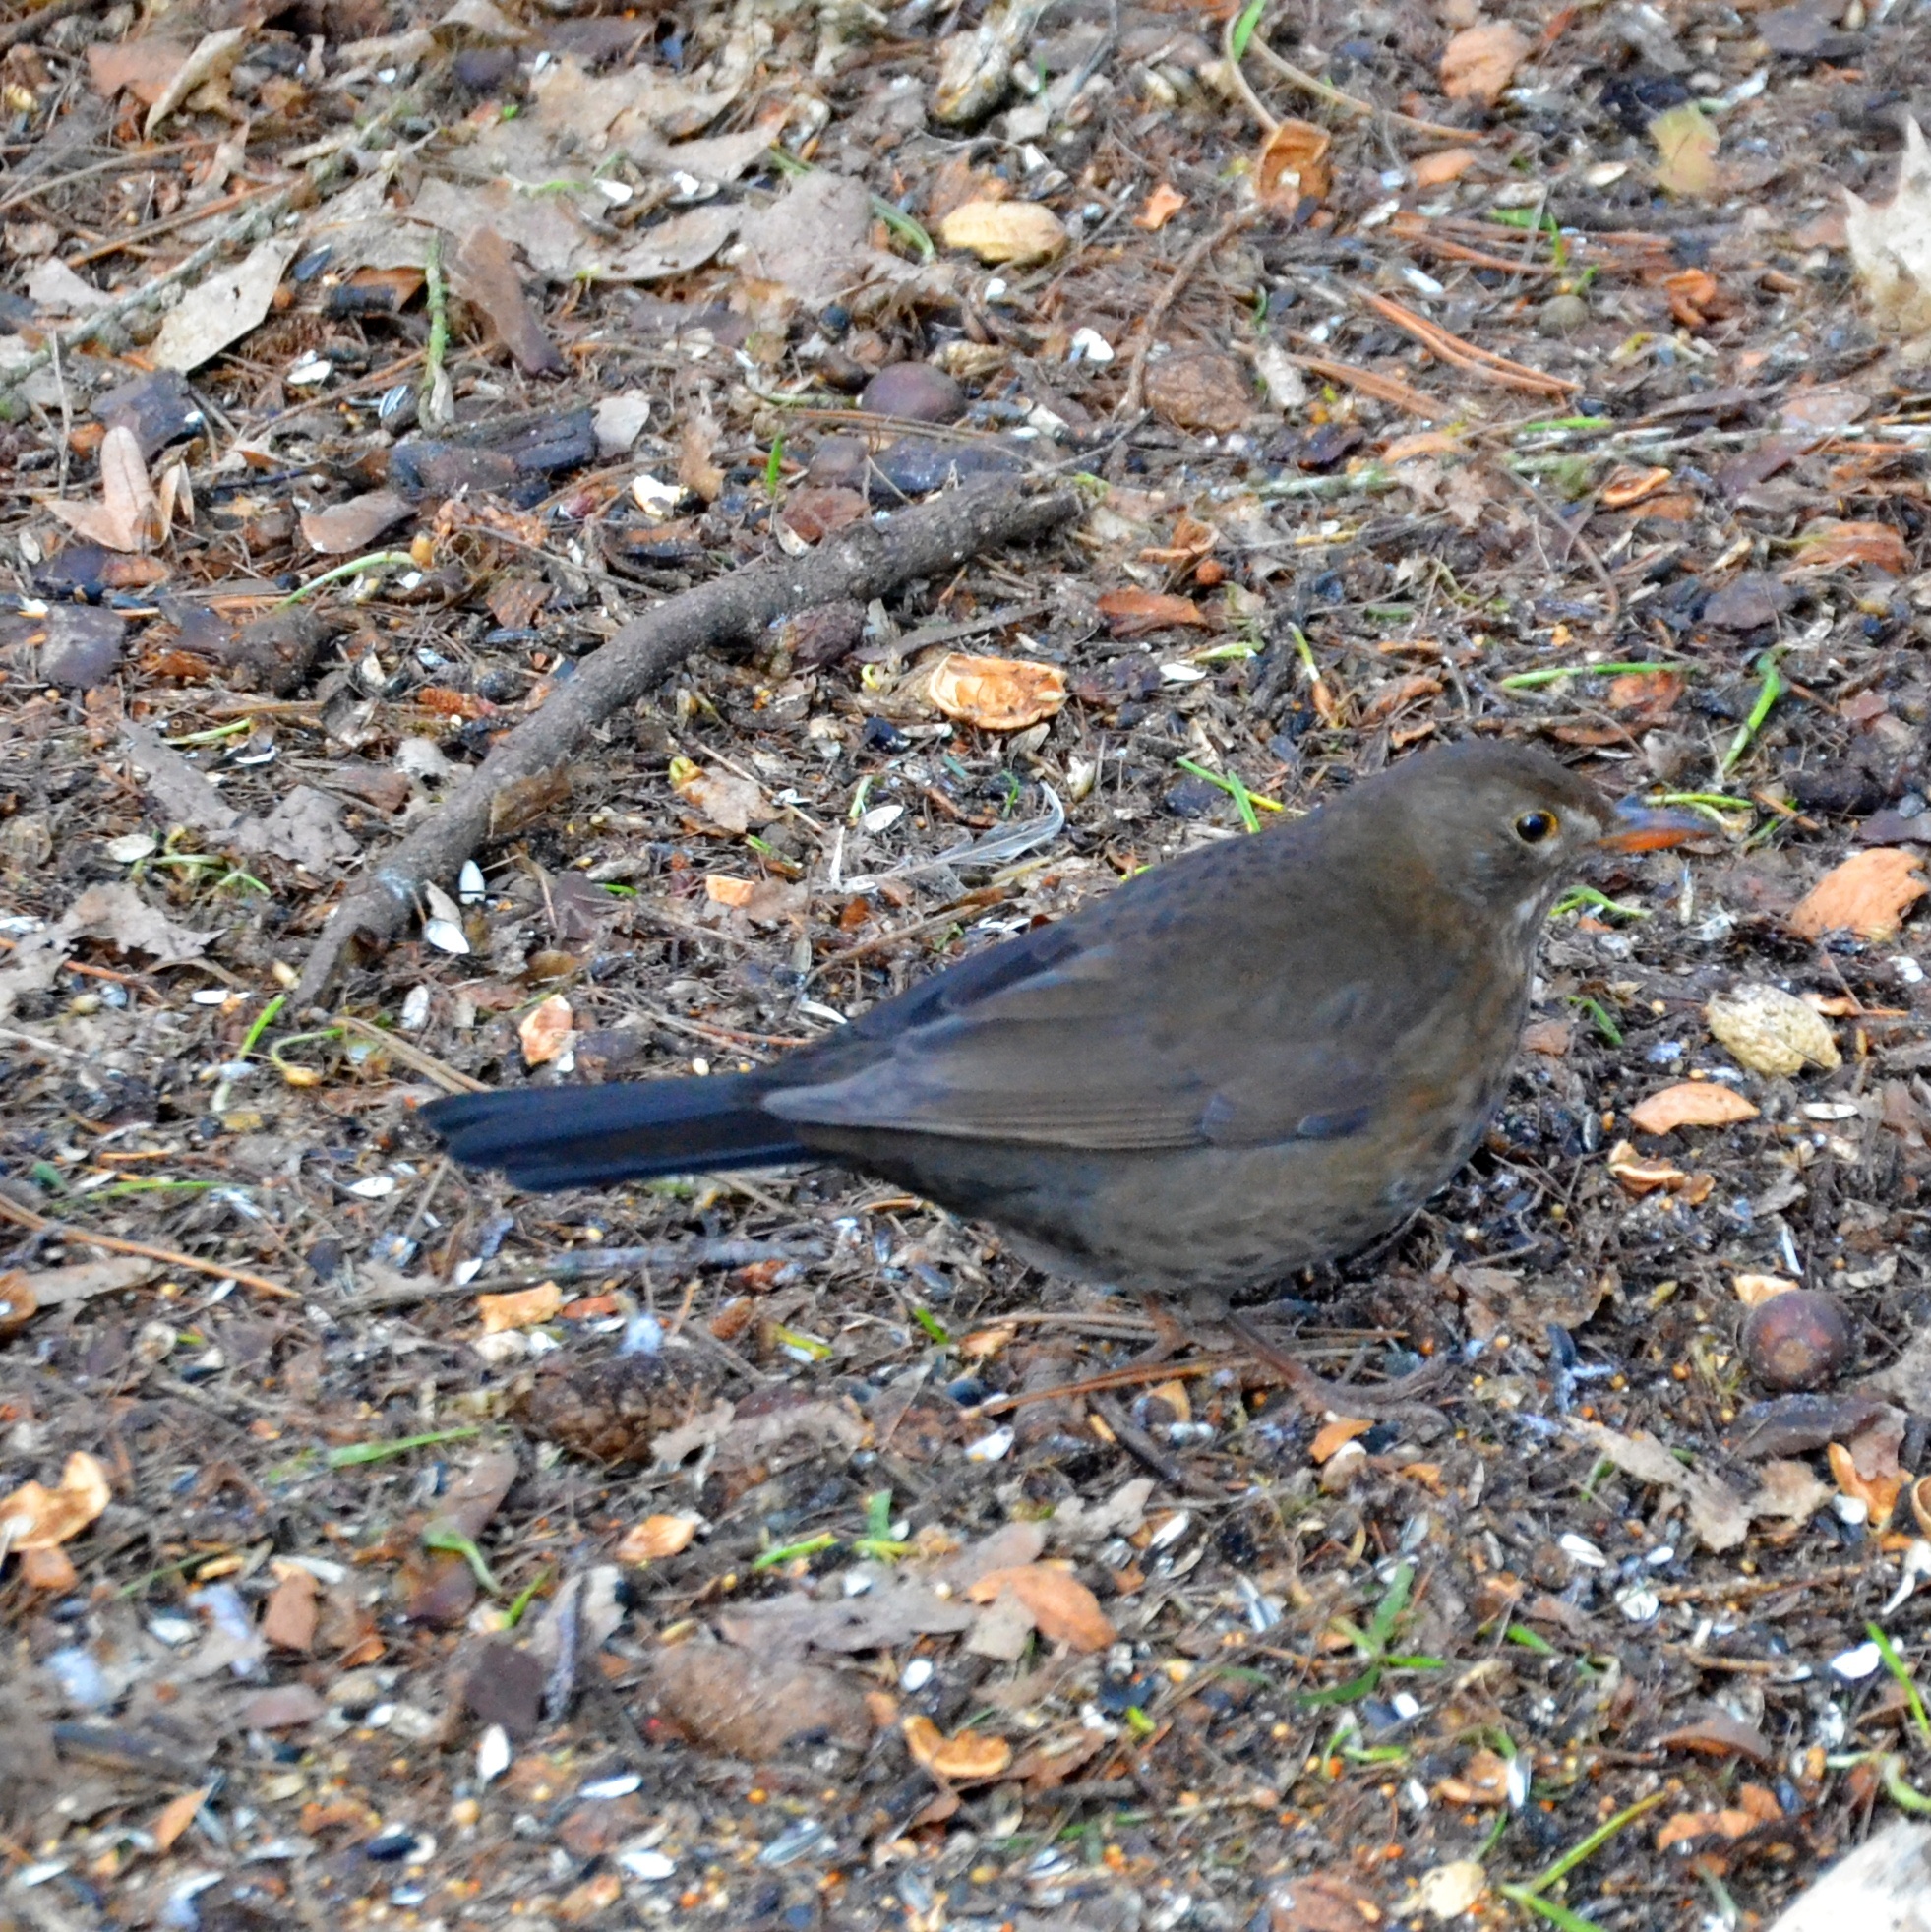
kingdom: Animalia
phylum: Chordata
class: Aves
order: Passeriformes
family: Turdidae
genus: Turdus
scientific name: Turdus merula
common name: Common blackbird
